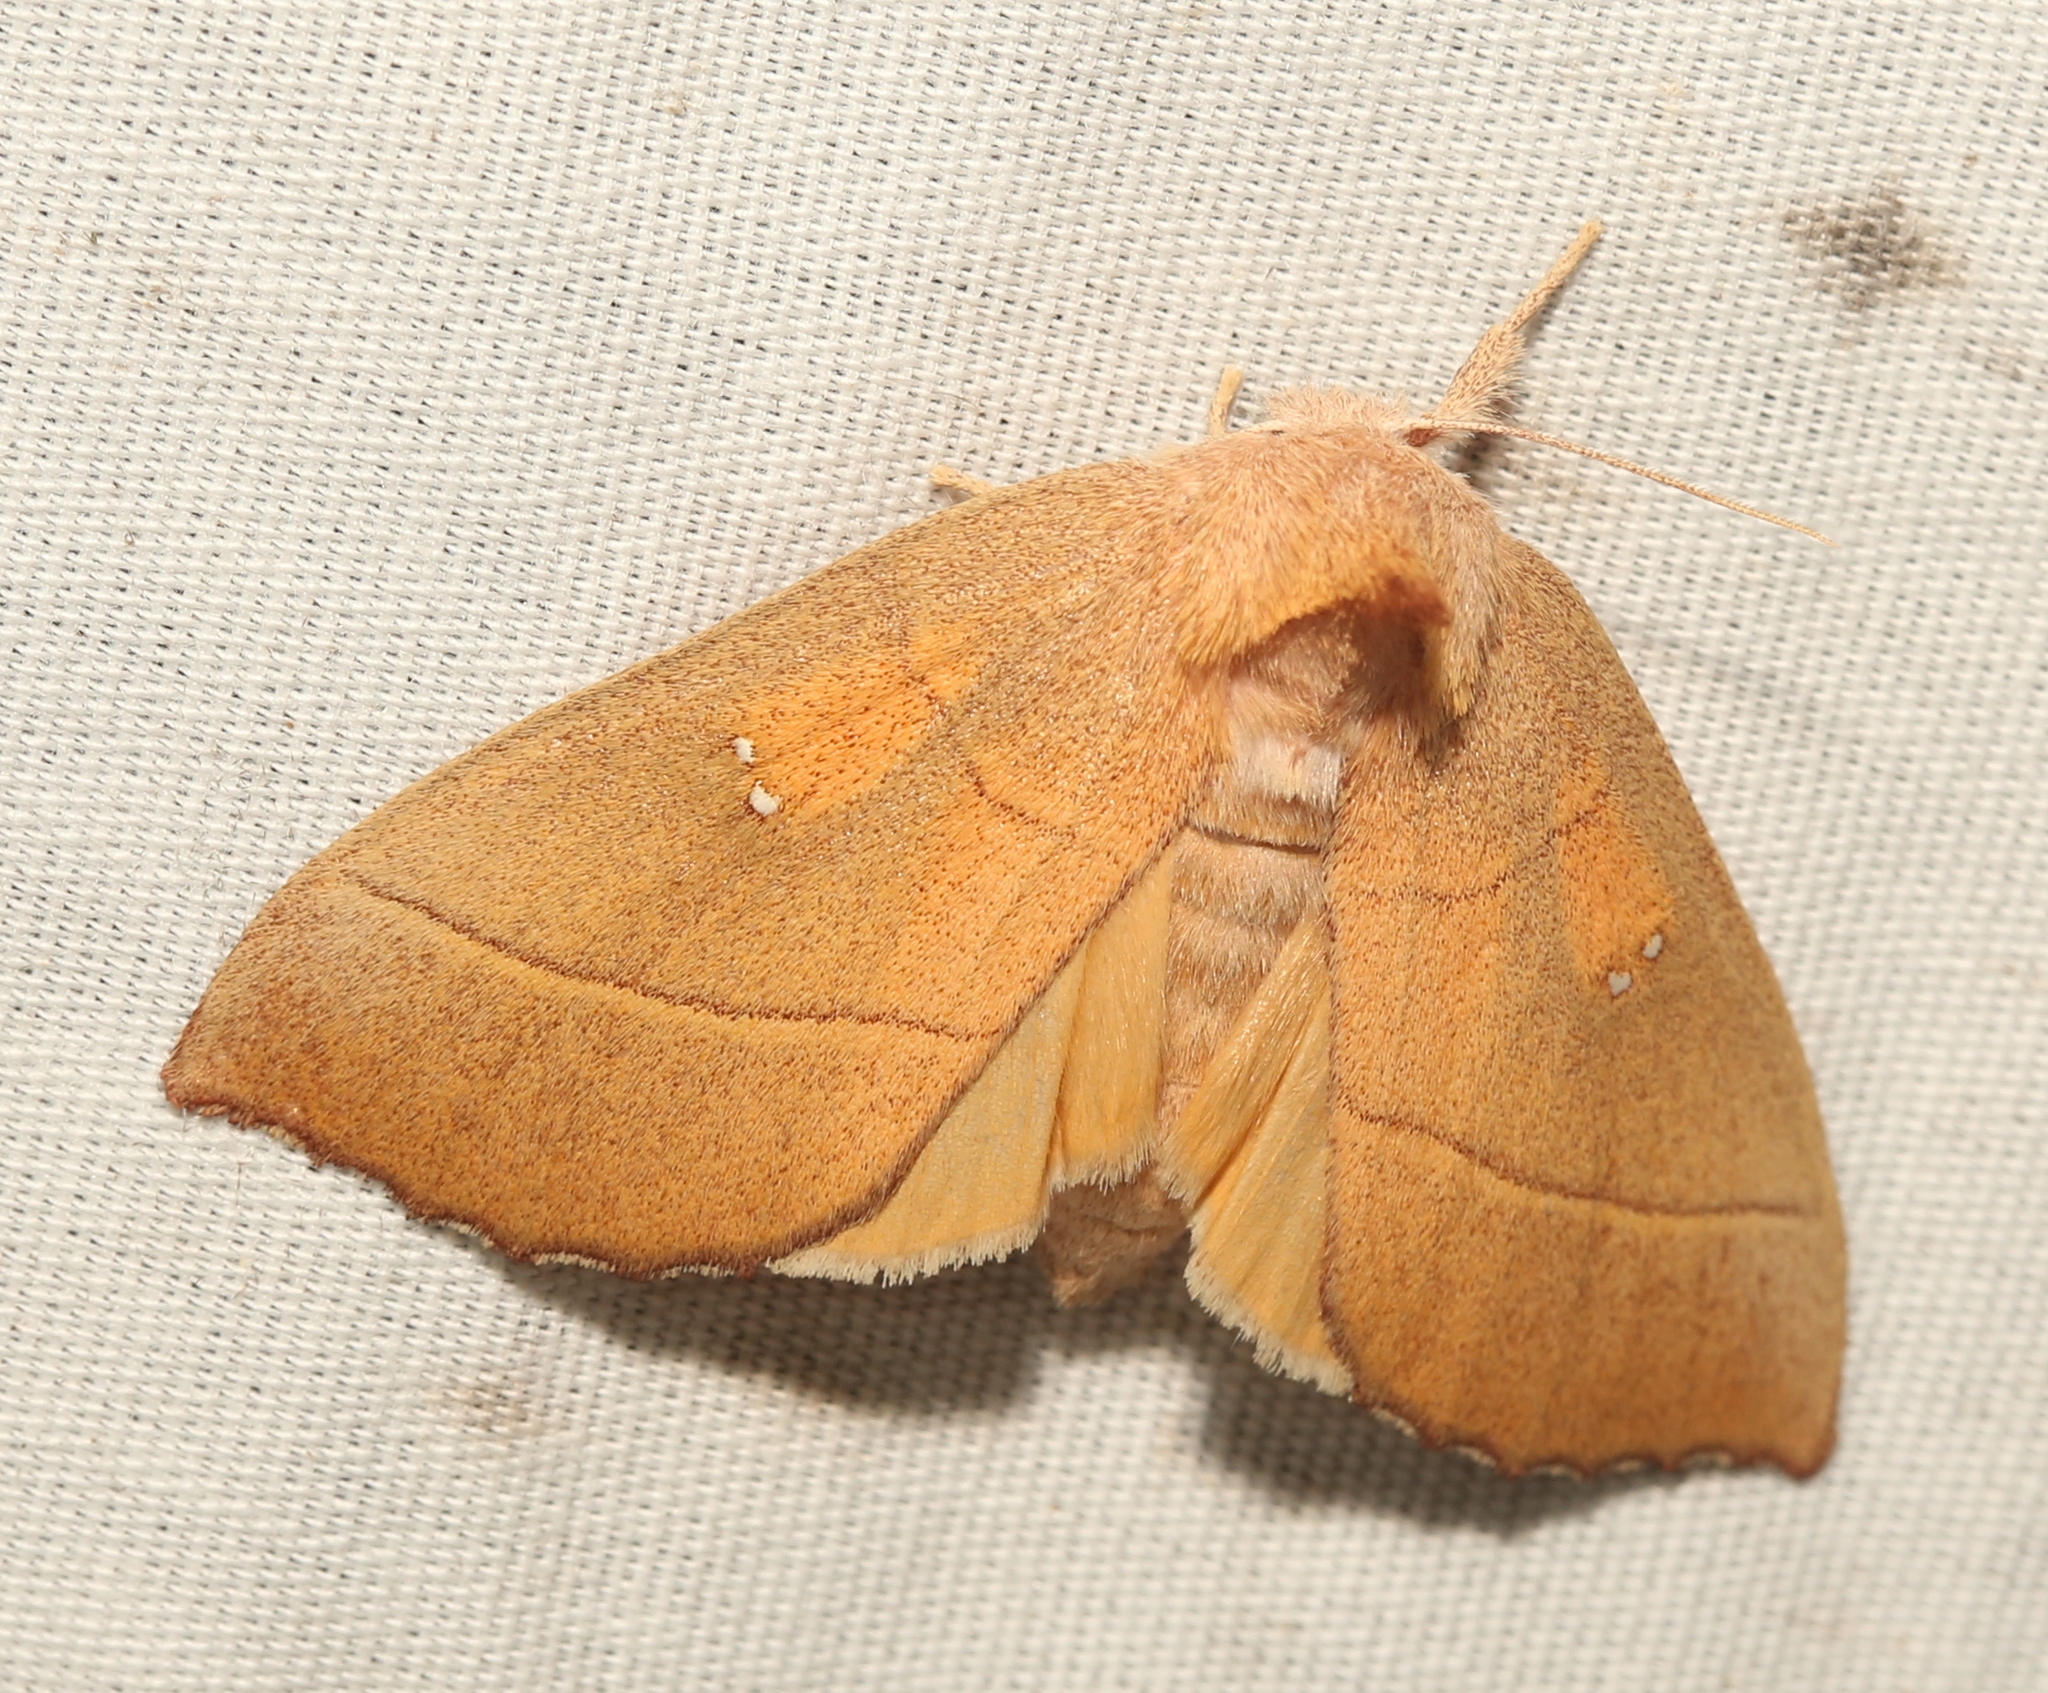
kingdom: Animalia
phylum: Arthropoda
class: Insecta
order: Lepidoptera
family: Notodontidae
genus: Nadata
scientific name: Nadata gibbosa
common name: White-dotted prominent
